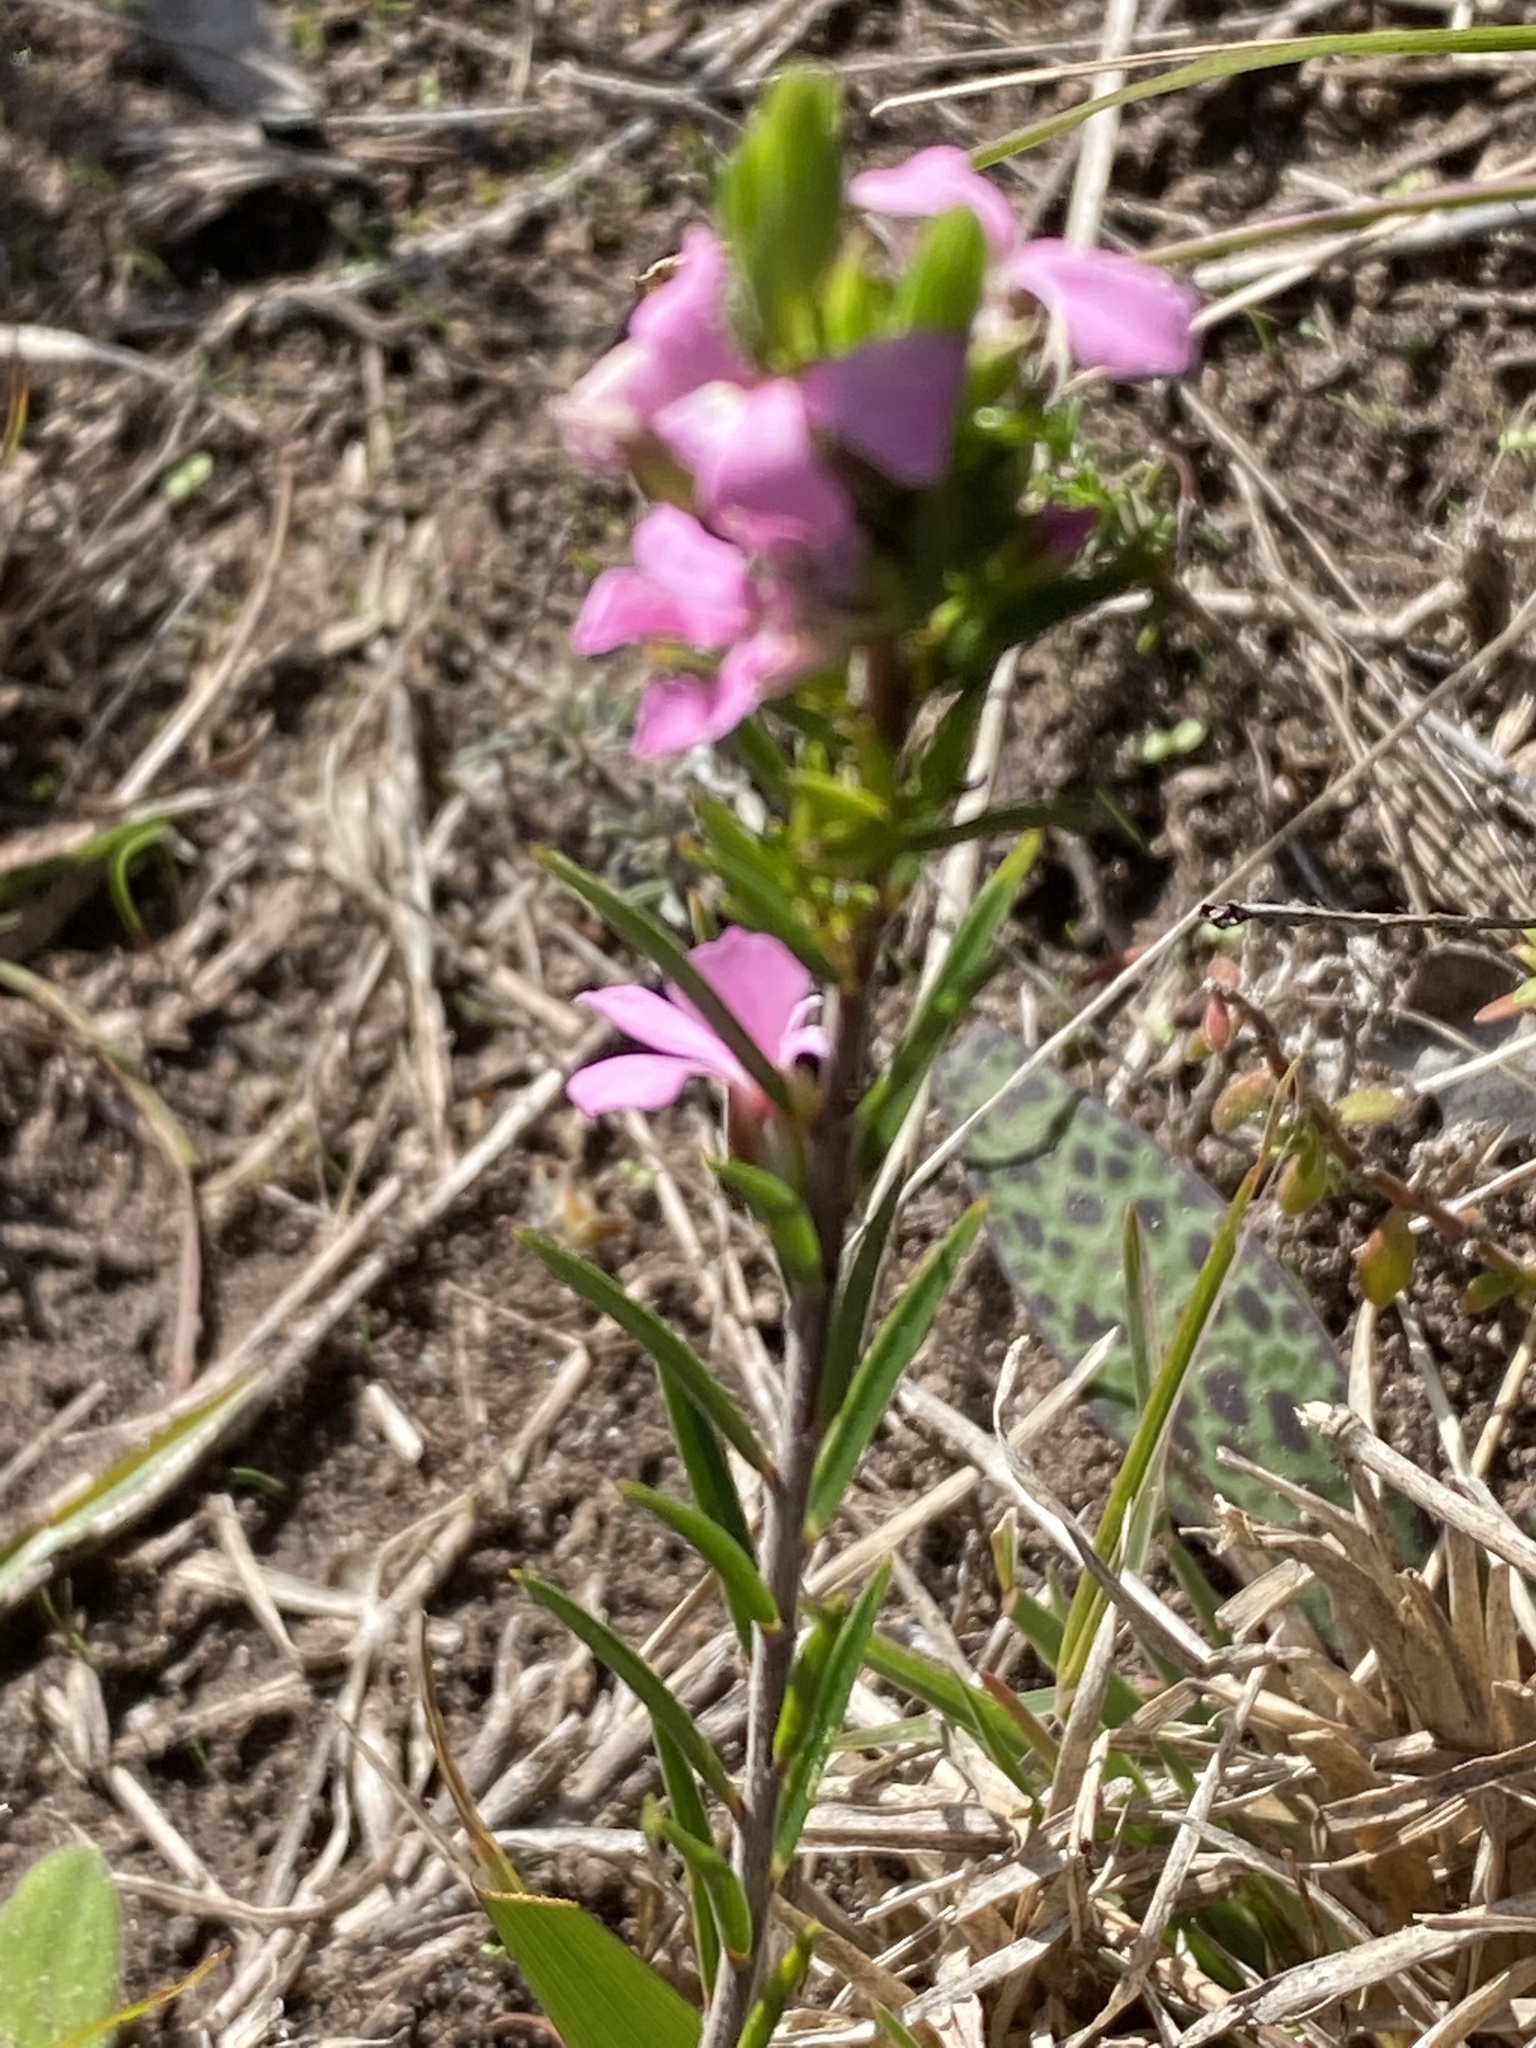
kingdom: Plantae
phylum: Tracheophyta
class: Magnoliopsida
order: Sapindales
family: Rutaceae
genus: Acmadenia
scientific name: Acmadenia densifolia
